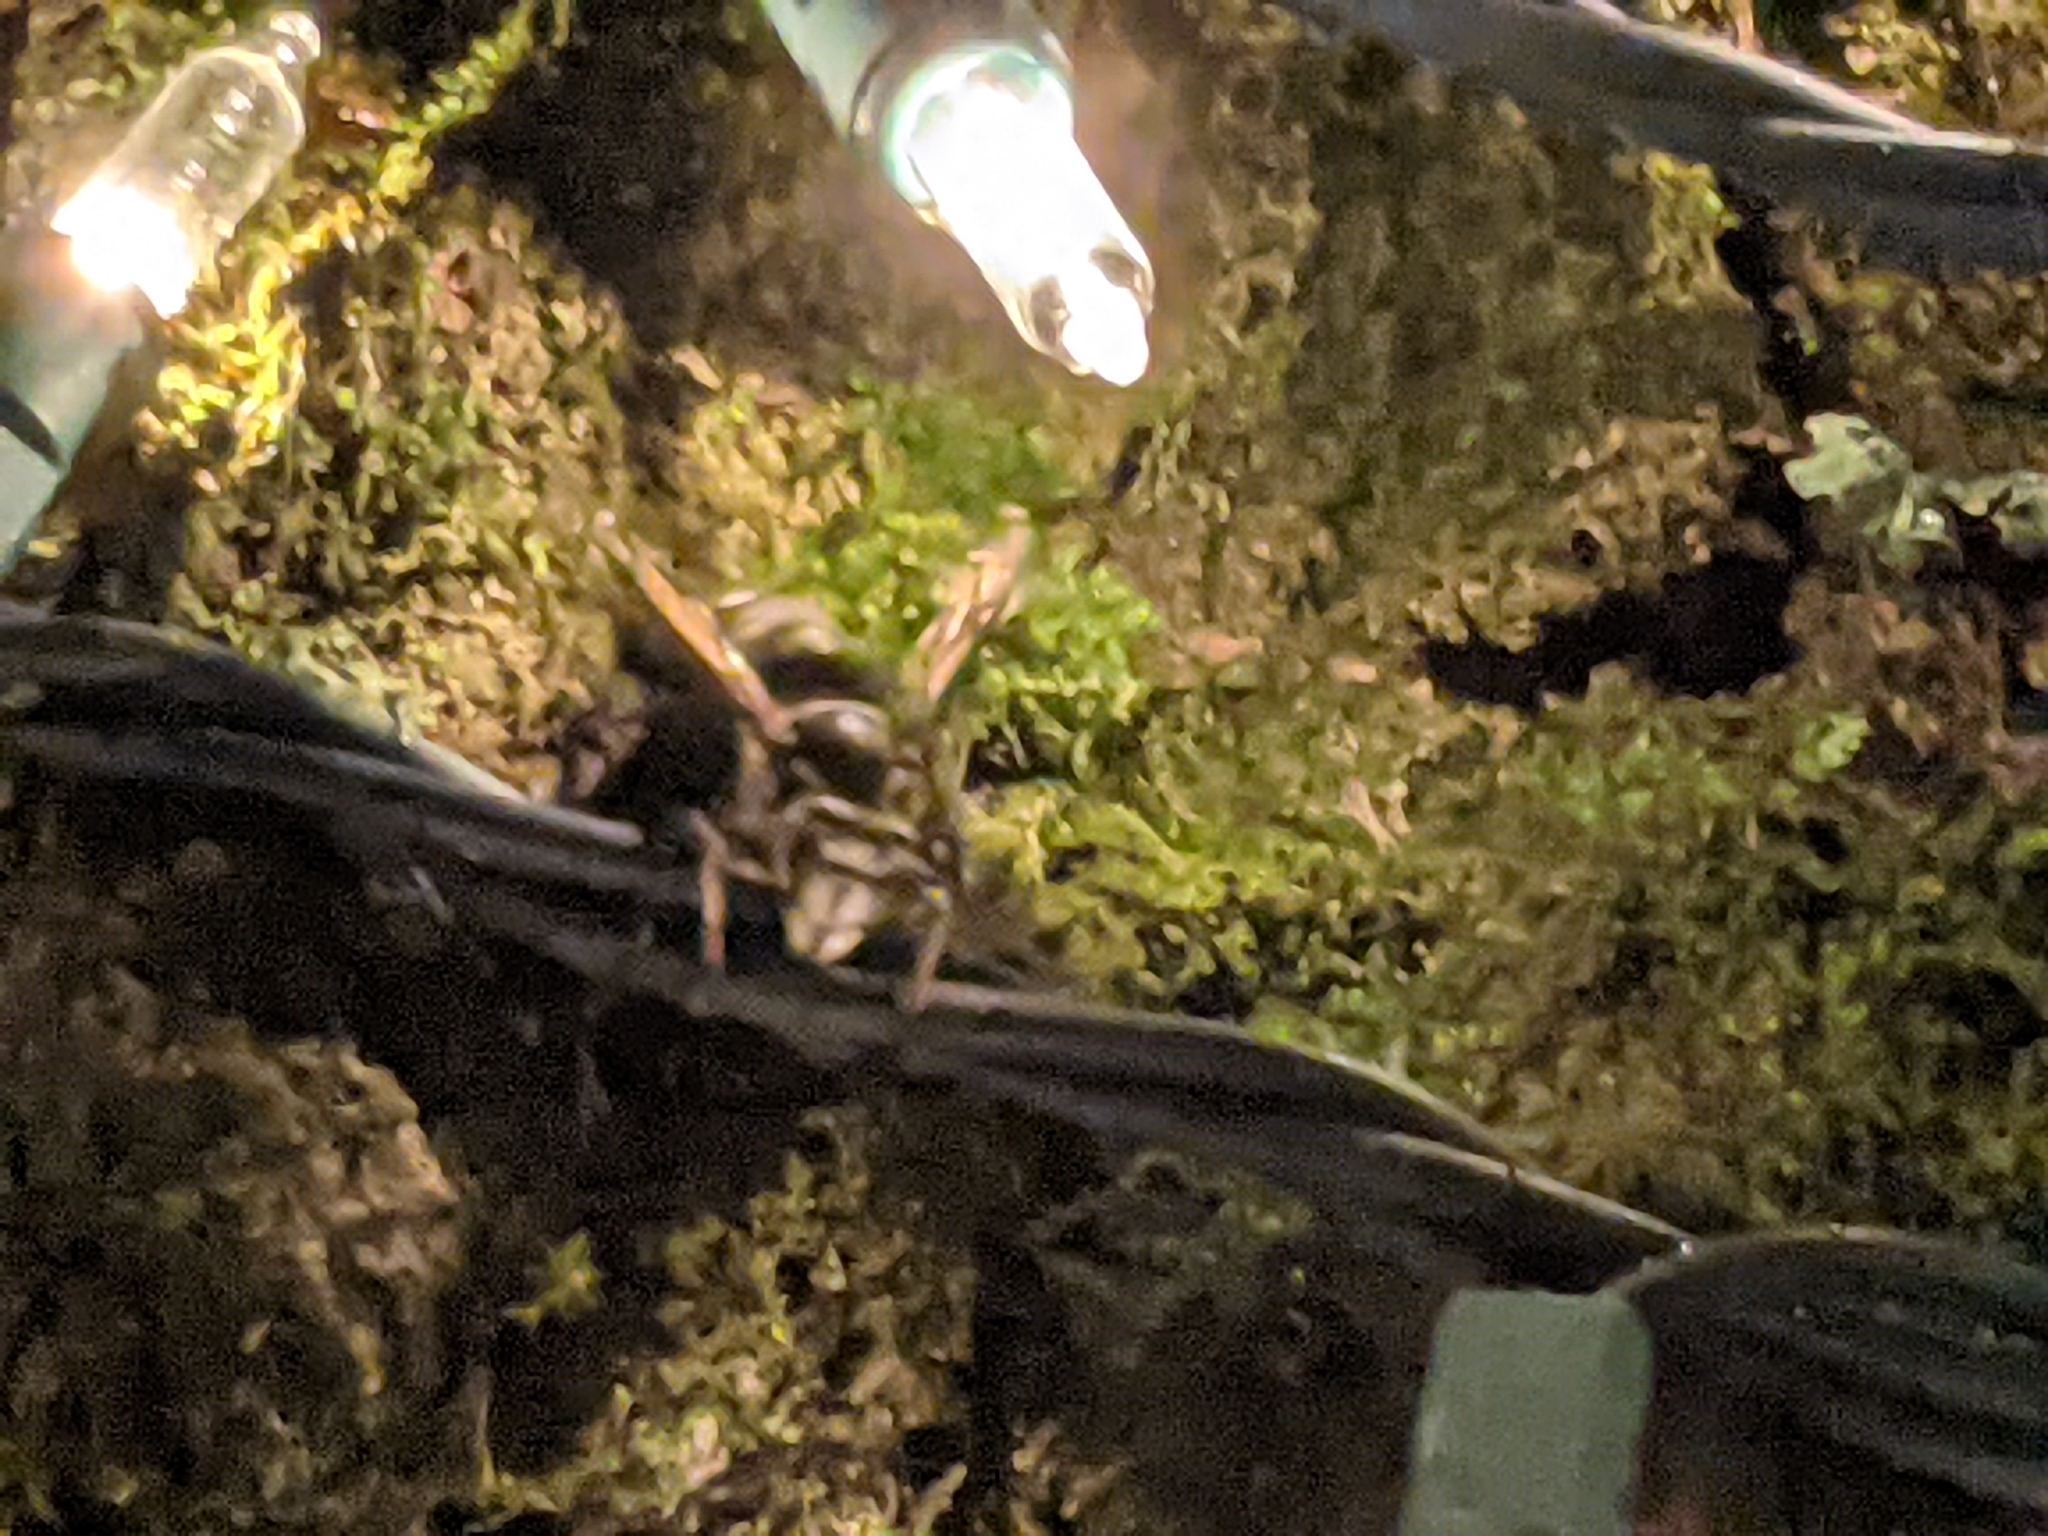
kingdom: Animalia
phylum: Arthropoda
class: Insecta
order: Hymenoptera
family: Vespidae
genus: Dolichovespula
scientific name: Dolichovespula maculata
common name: Bald-faced hornet
